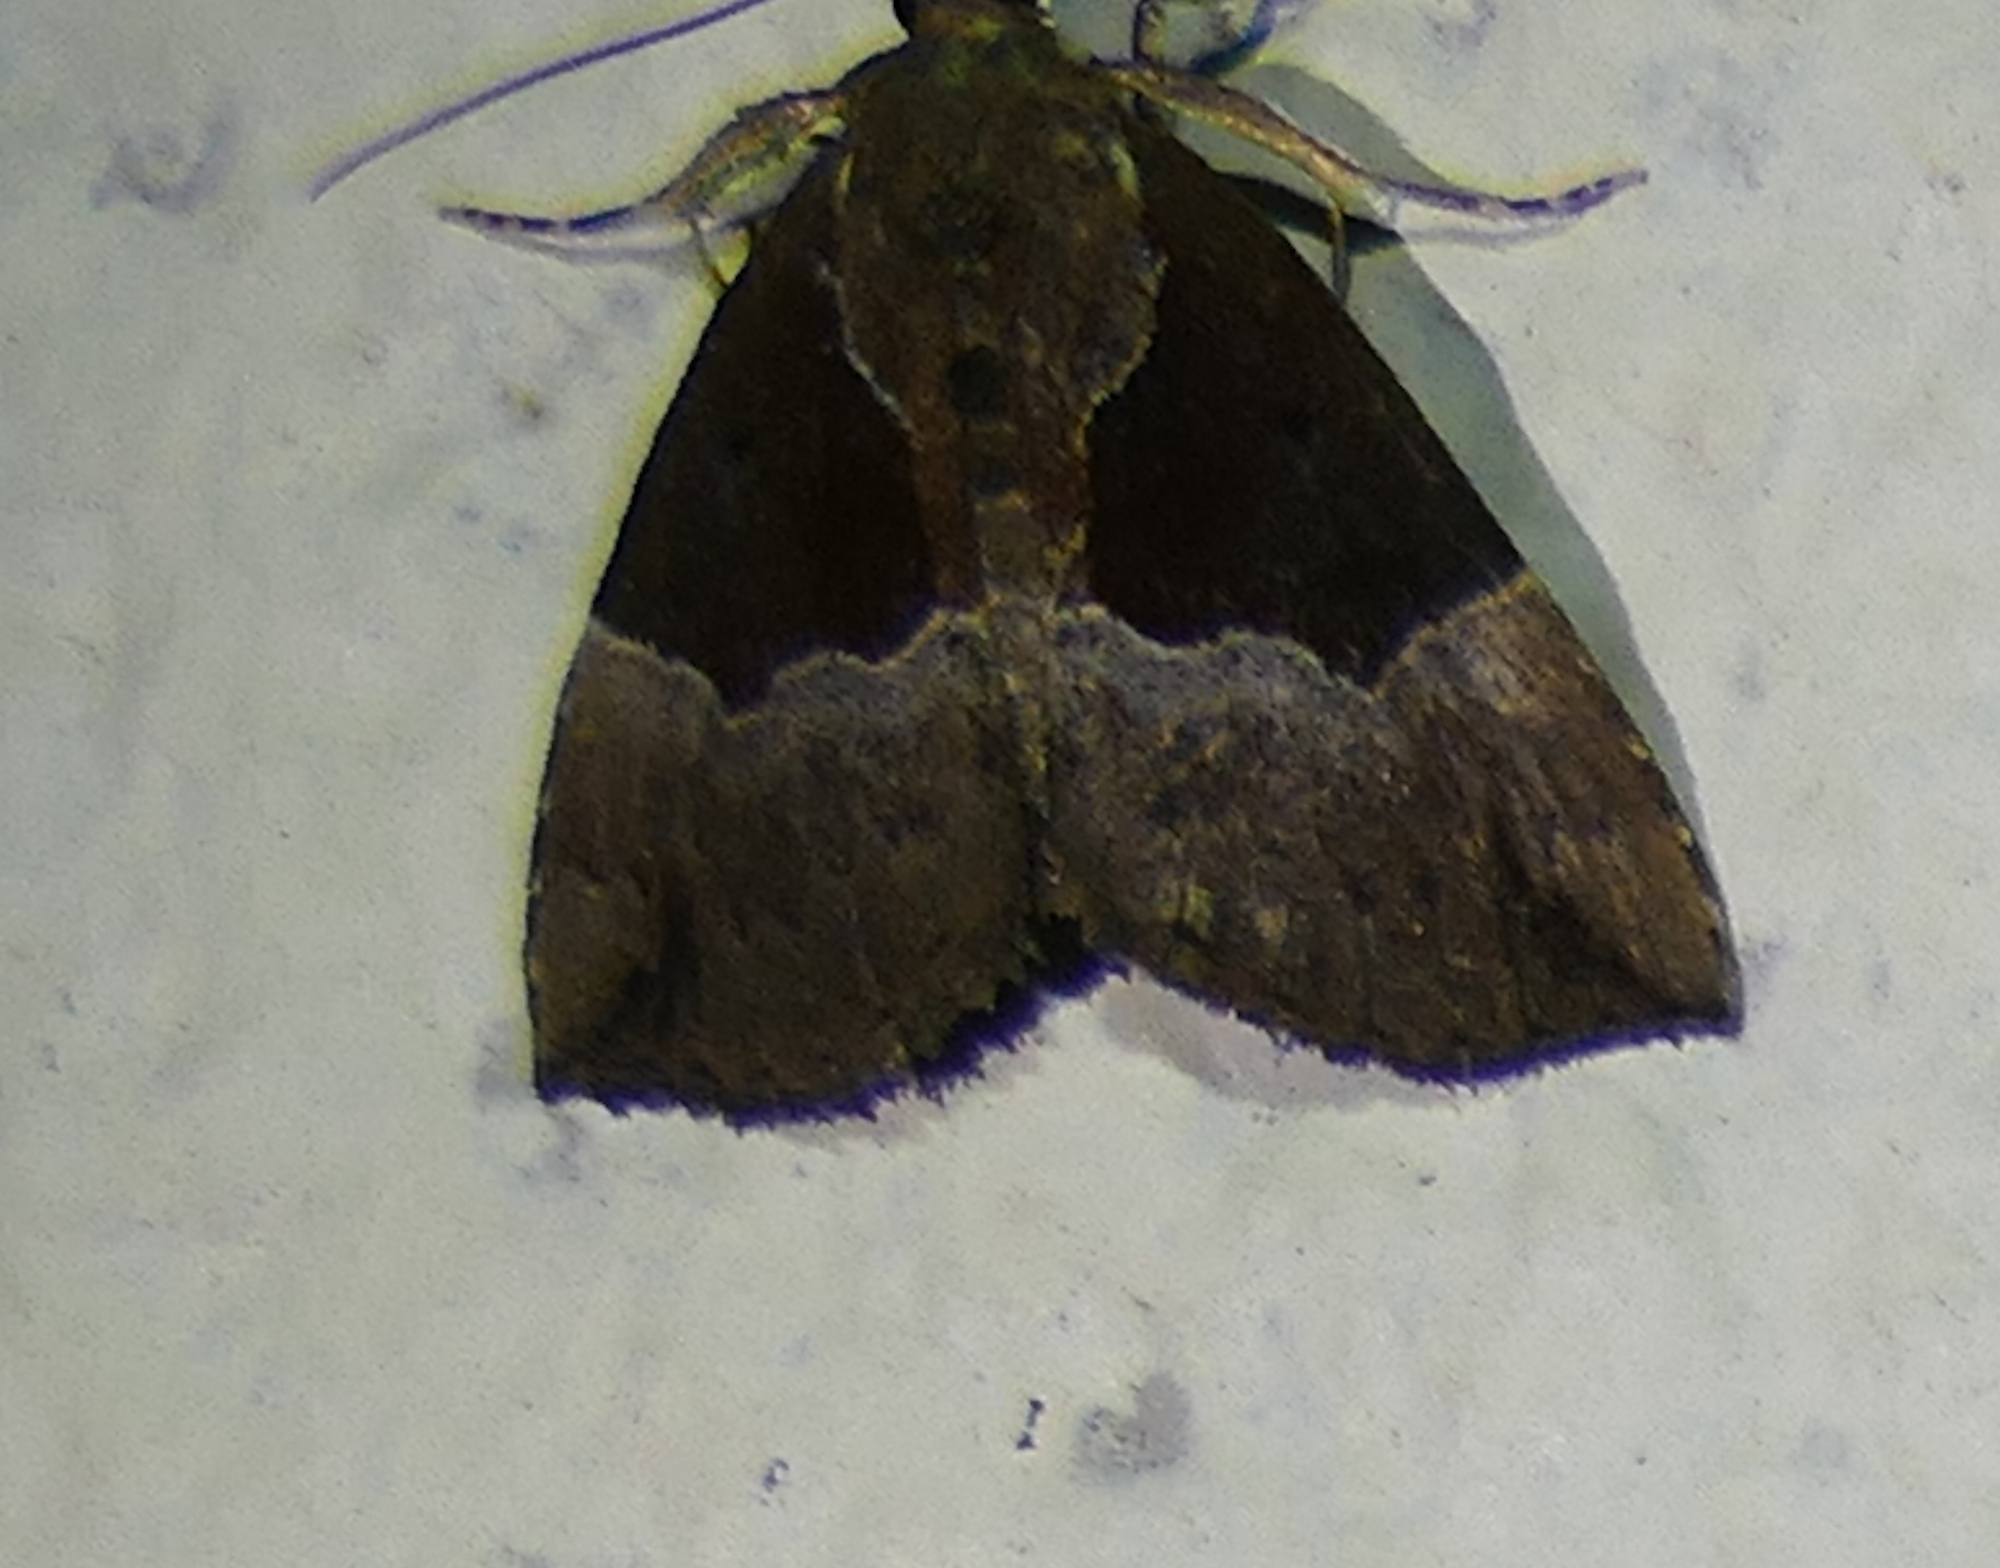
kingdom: Animalia
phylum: Arthropoda
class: Insecta
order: Lepidoptera
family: Erebidae
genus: Hypena
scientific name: Hypena bijugalis
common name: Dimorphic bomolocha moth
